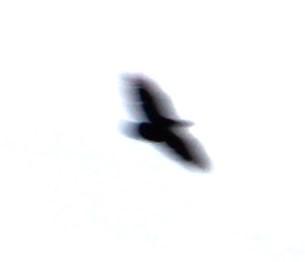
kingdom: Animalia
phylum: Chordata
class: Aves
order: Passeriformes
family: Corvidae
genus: Corvus
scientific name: Corvus albicollis
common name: White-necked raven
